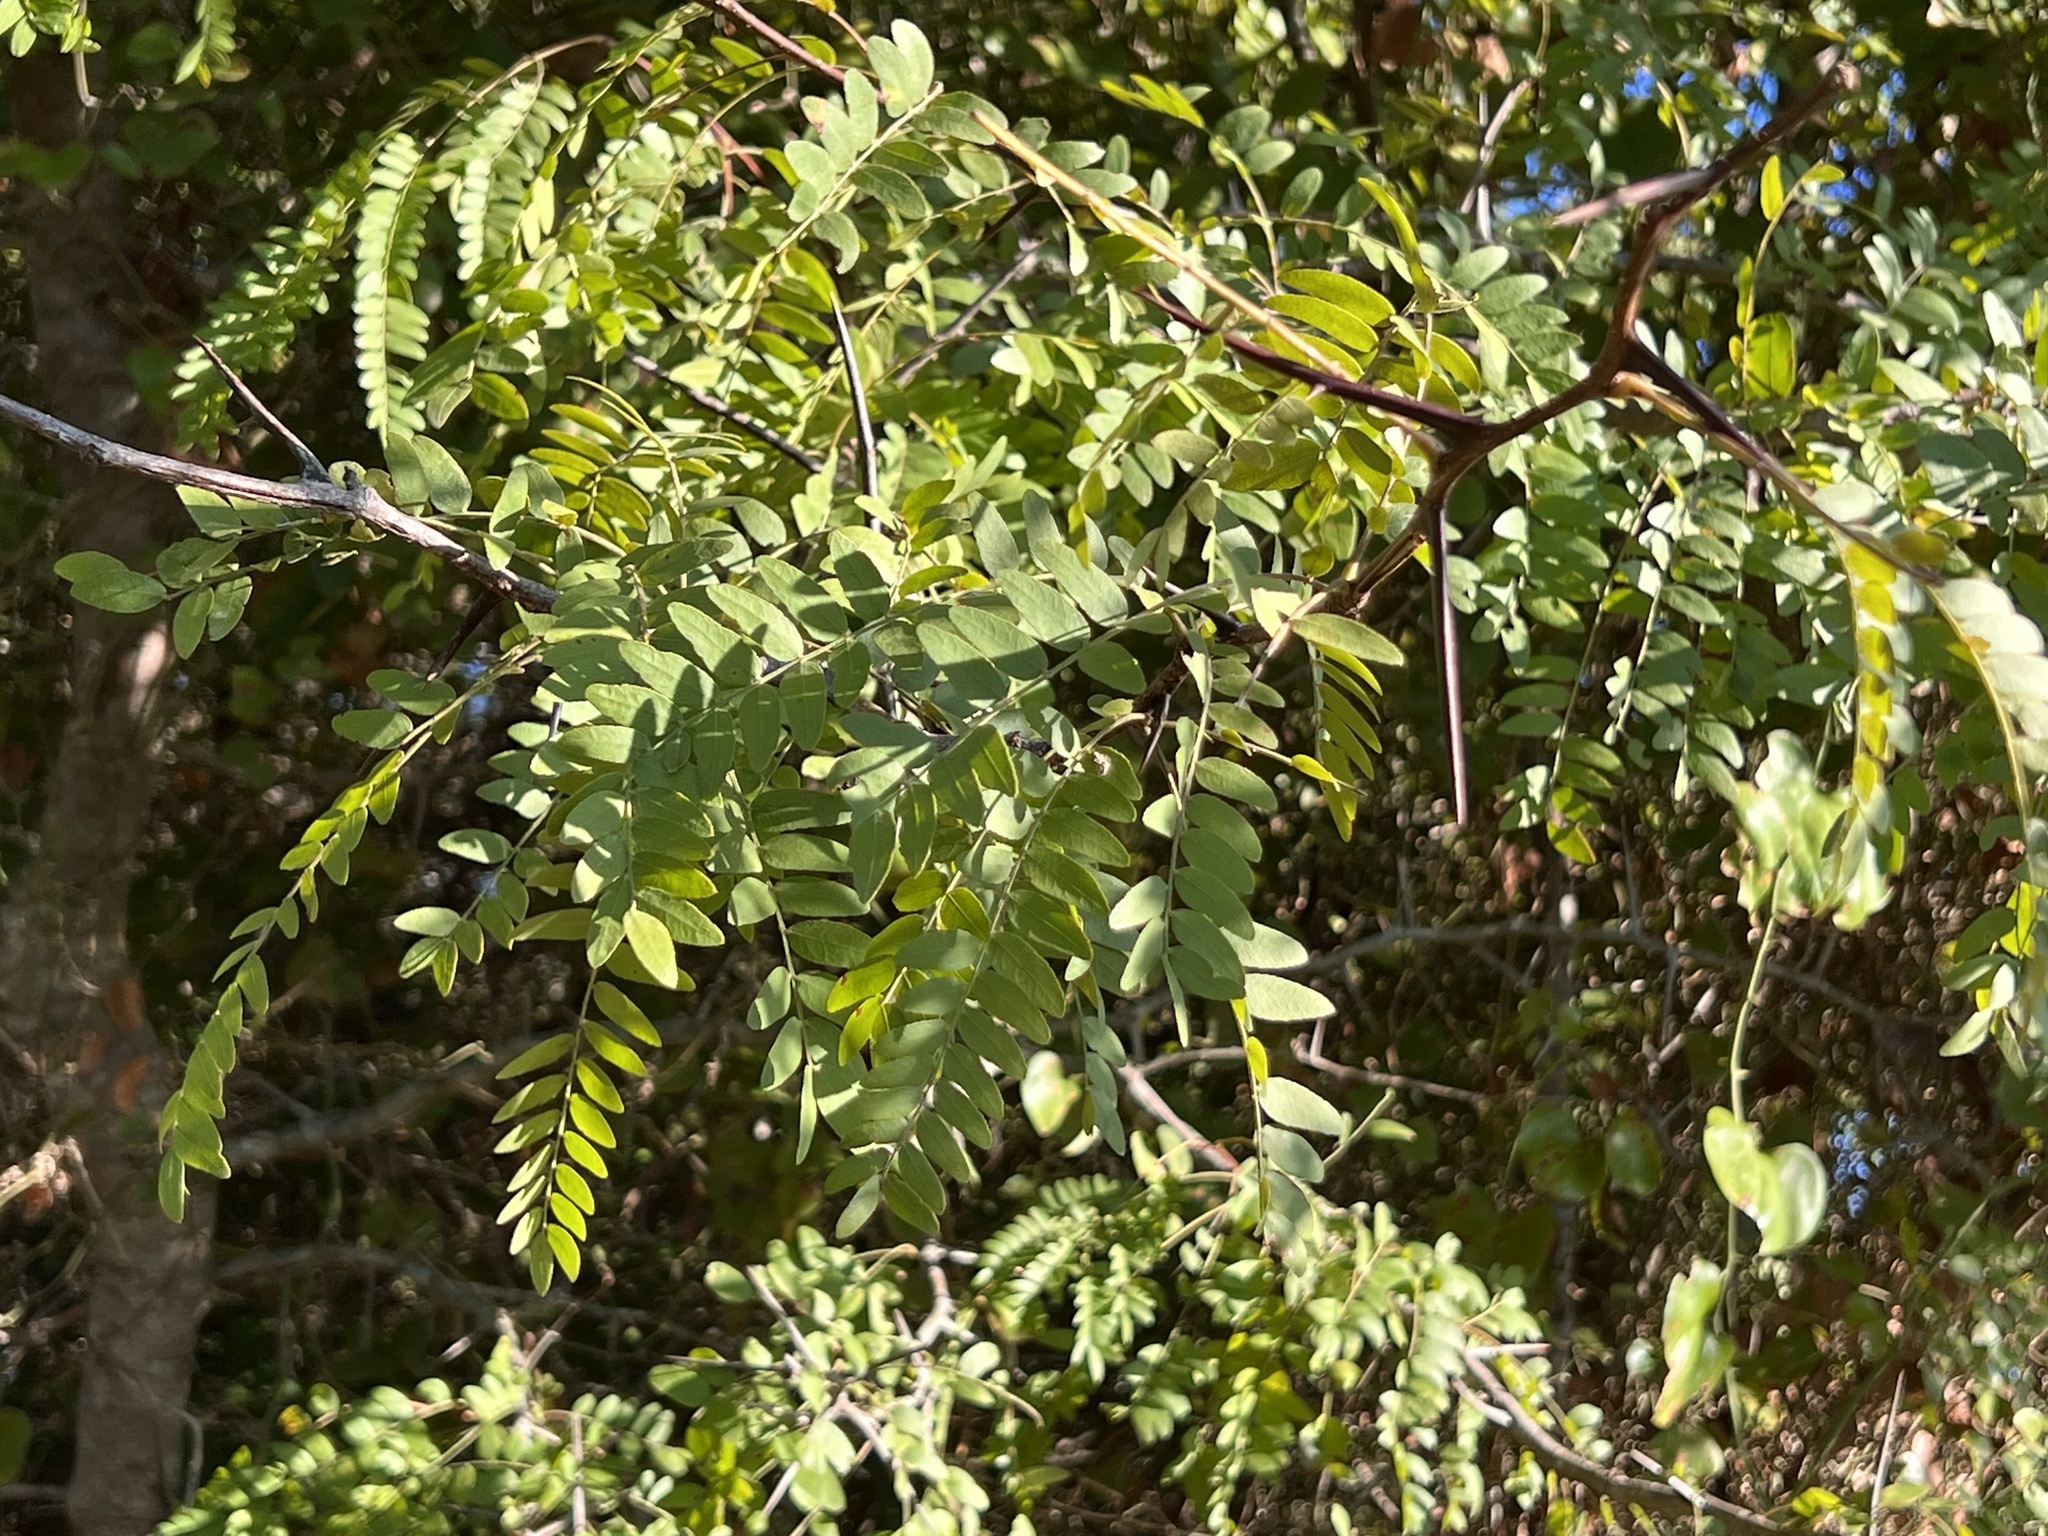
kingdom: Plantae
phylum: Tracheophyta
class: Magnoliopsida
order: Fabales
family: Fabaceae
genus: Gleditsia
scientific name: Gleditsia triacanthos
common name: Common honeylocust
